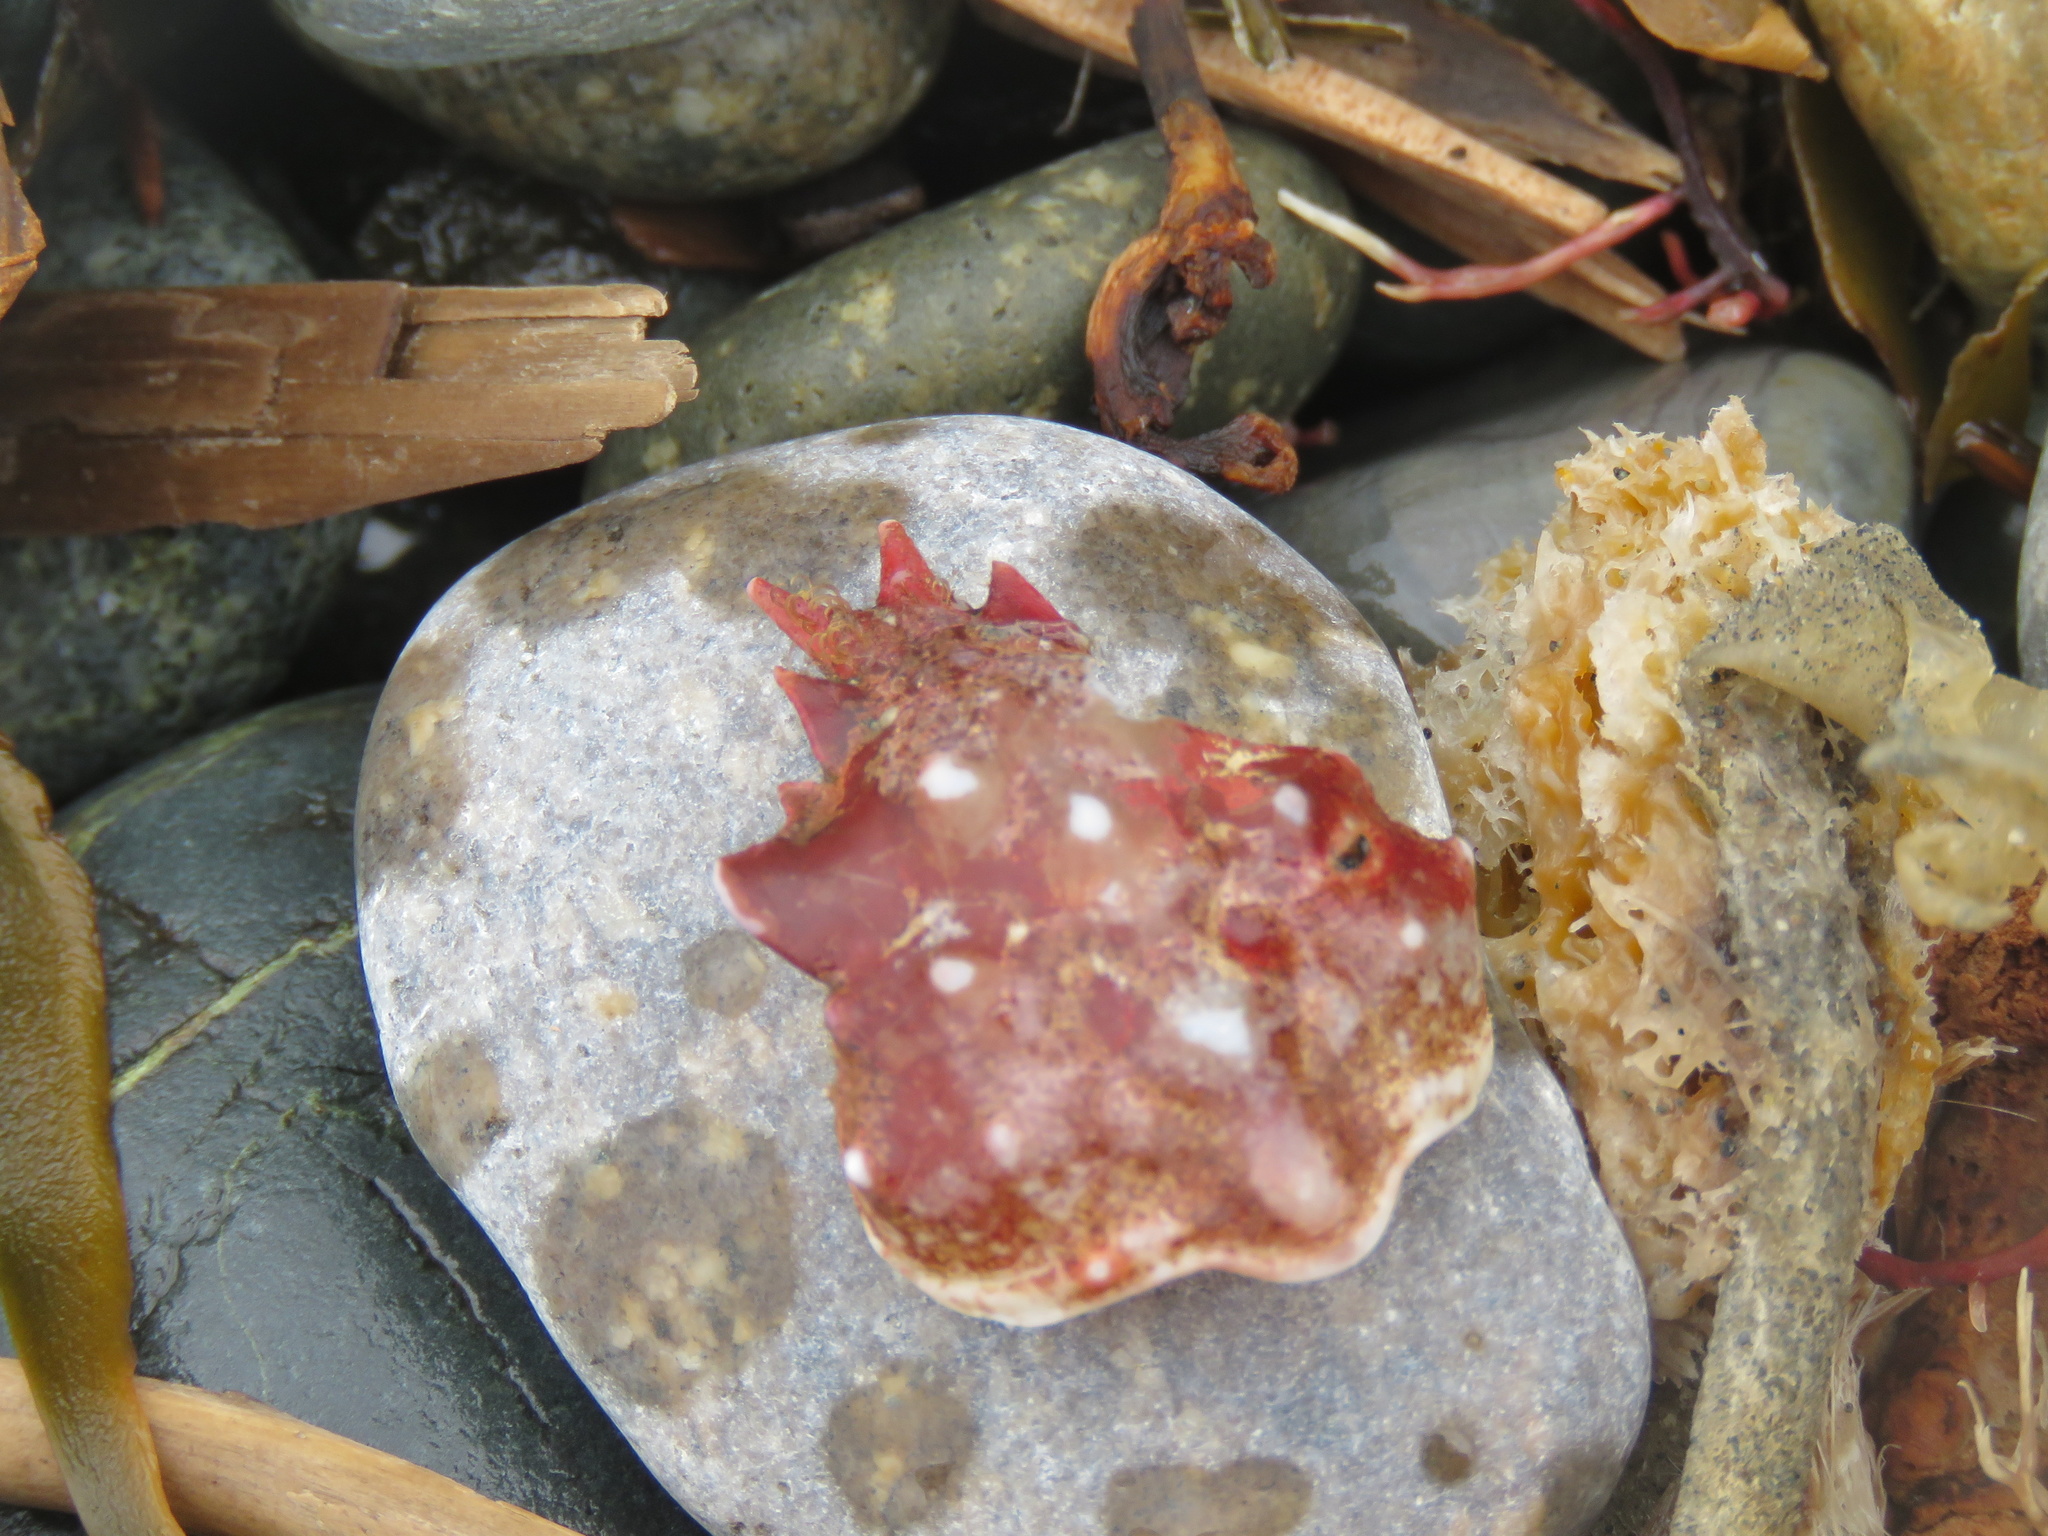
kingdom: Animalia
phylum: Arthropoda
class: Malacostraca
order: Decapoda
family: Epialtidae
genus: Pugettia
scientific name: Pugettia gracilis
